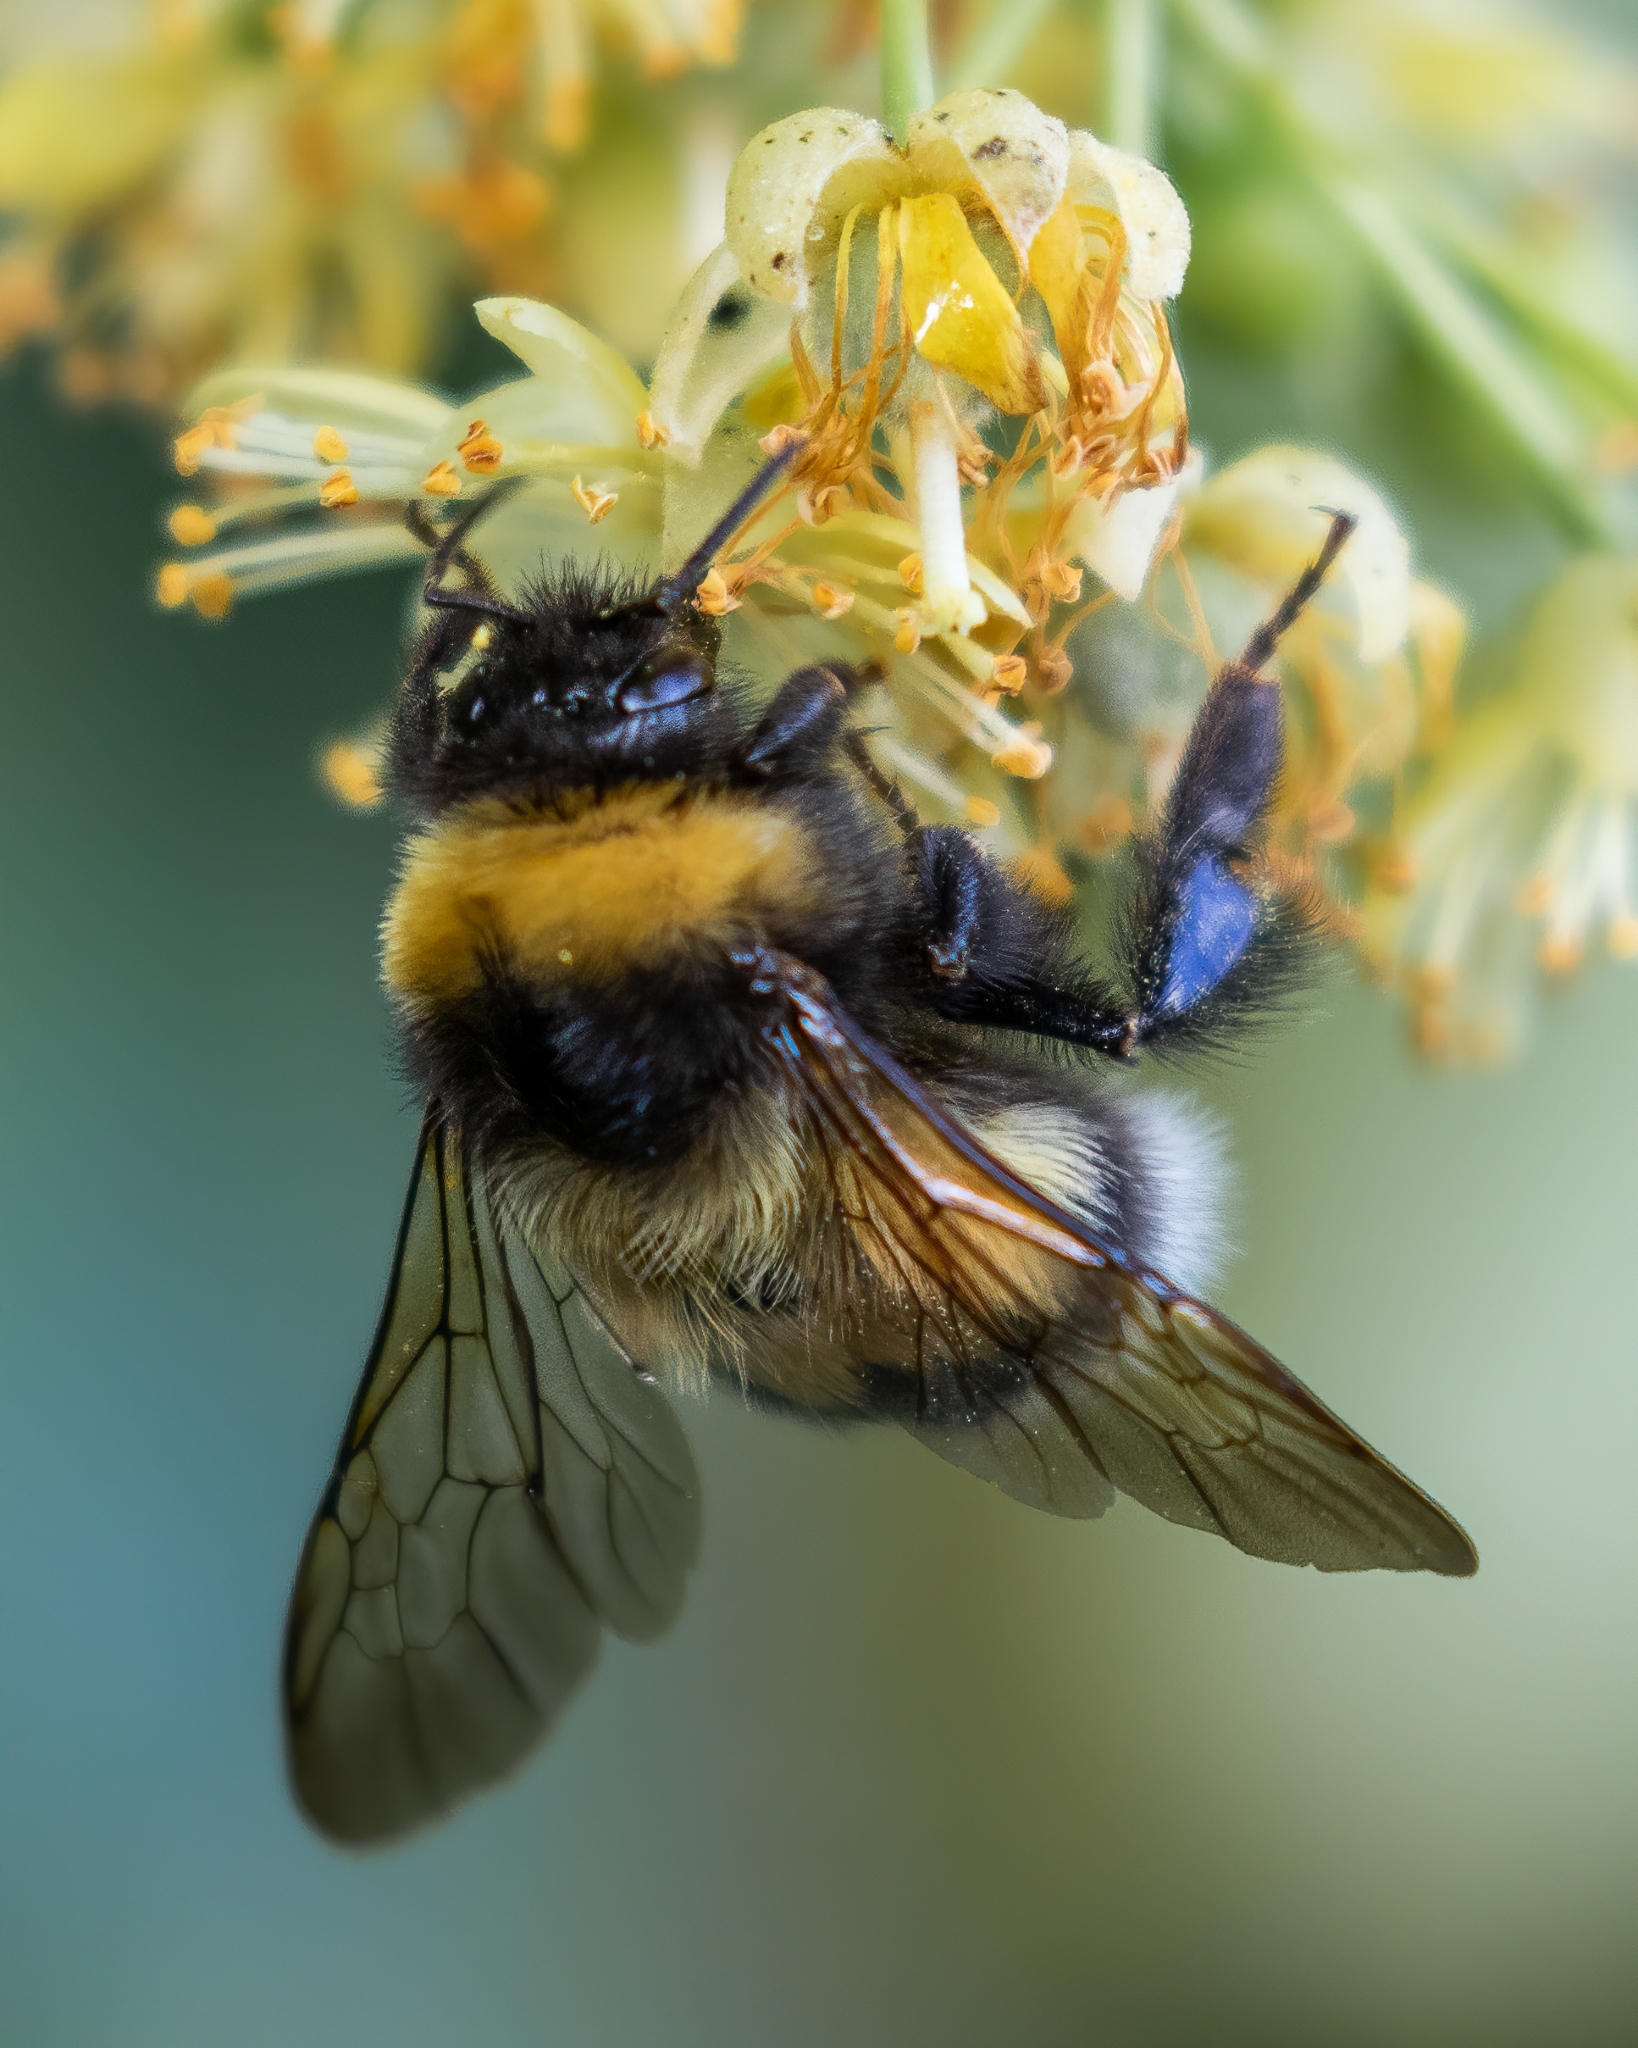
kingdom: Animalia
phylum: Arthropoda
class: Insecta
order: Hymenoptera
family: Apidae
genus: Bombus
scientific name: Bombus hortorum
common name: Garden bumblebee
